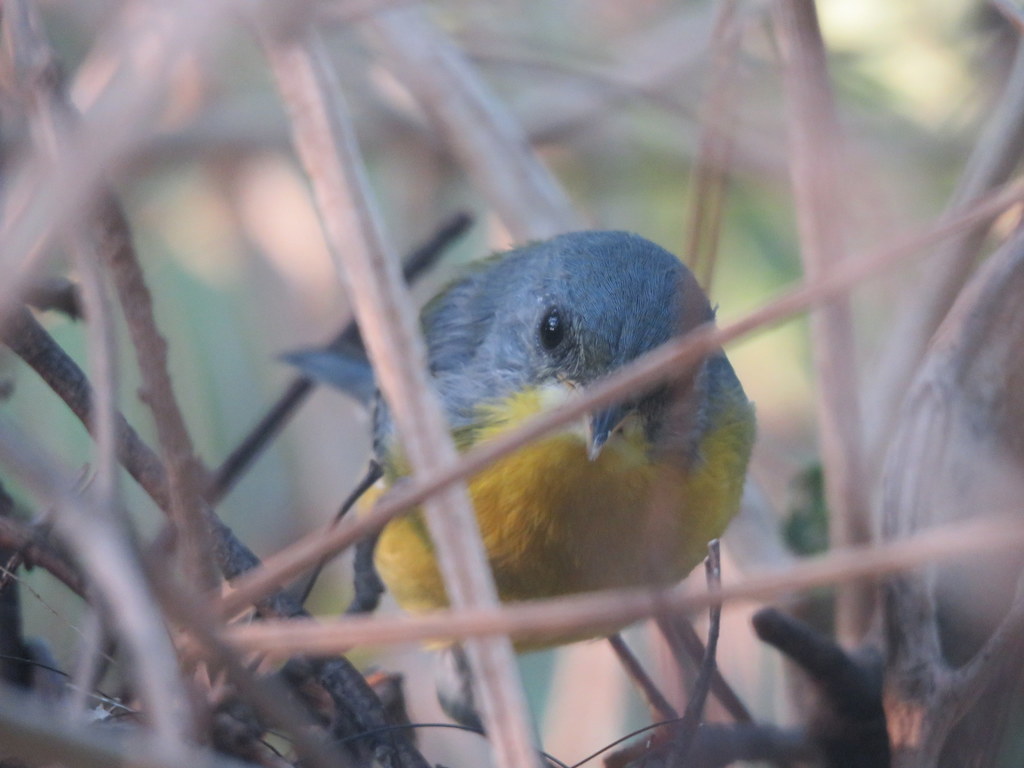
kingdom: Animalia
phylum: Chordata
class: Aves
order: Passeriformes
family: Parulidae
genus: Setophaga
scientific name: Setophaga pitiayumi
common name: Tropical parula
